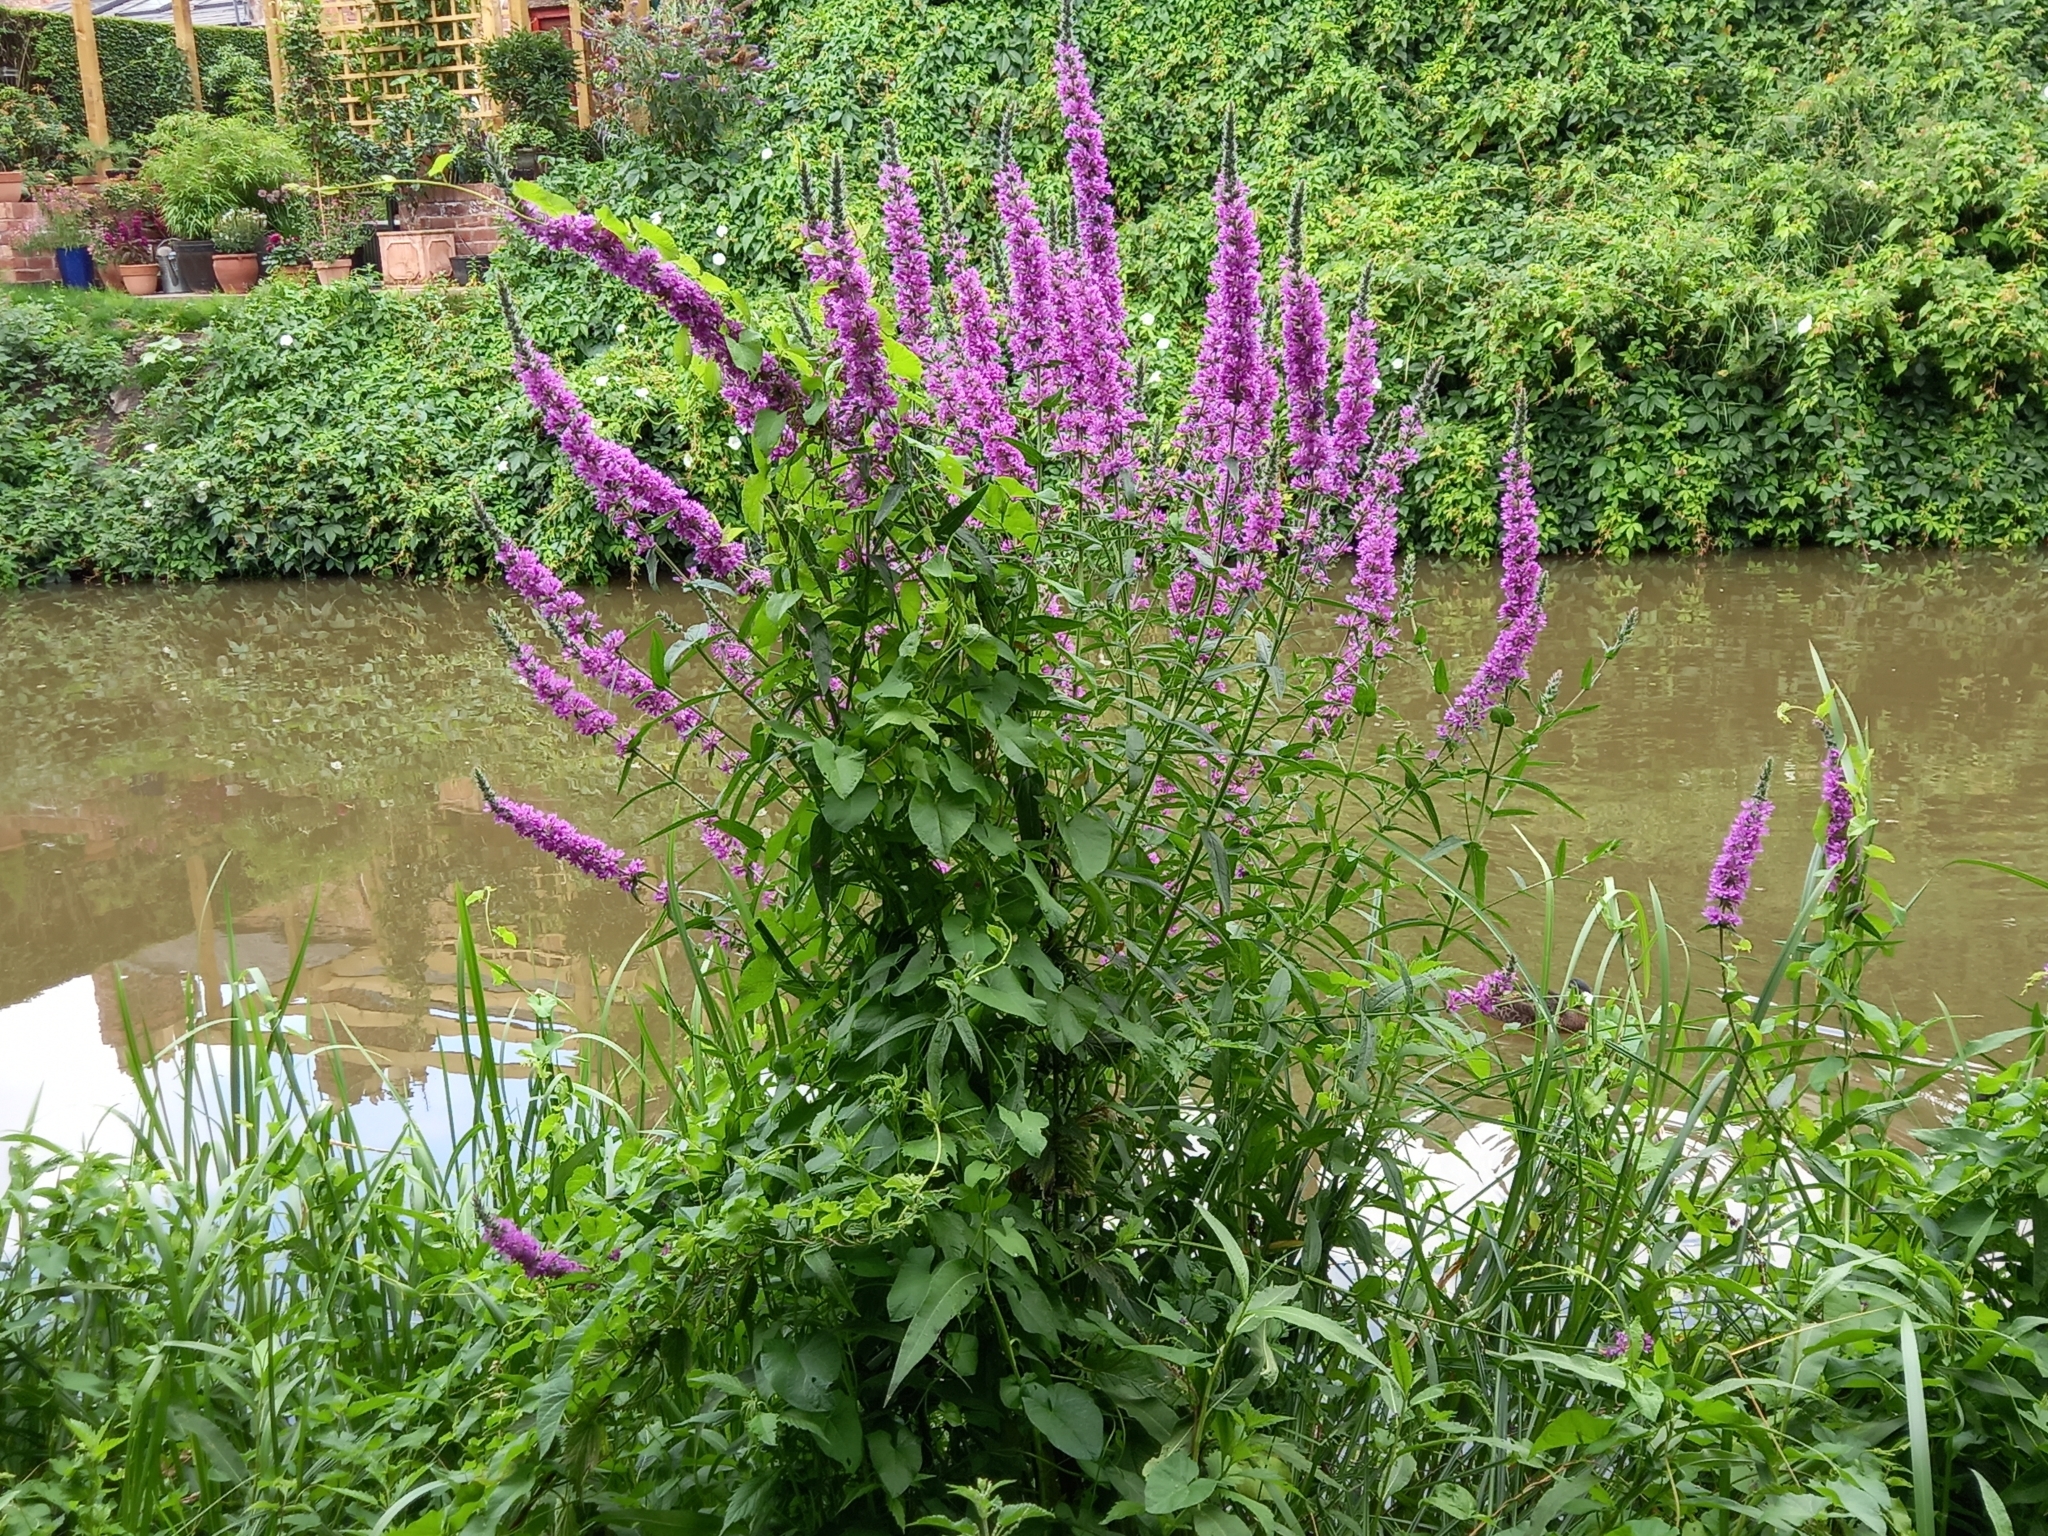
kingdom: Plantae
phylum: Tracheophyta
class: Magnoliopsida
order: Myrtales
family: Lythraceae
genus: Lythrum
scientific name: Lythrum salicaria
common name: Purple loosestrife
